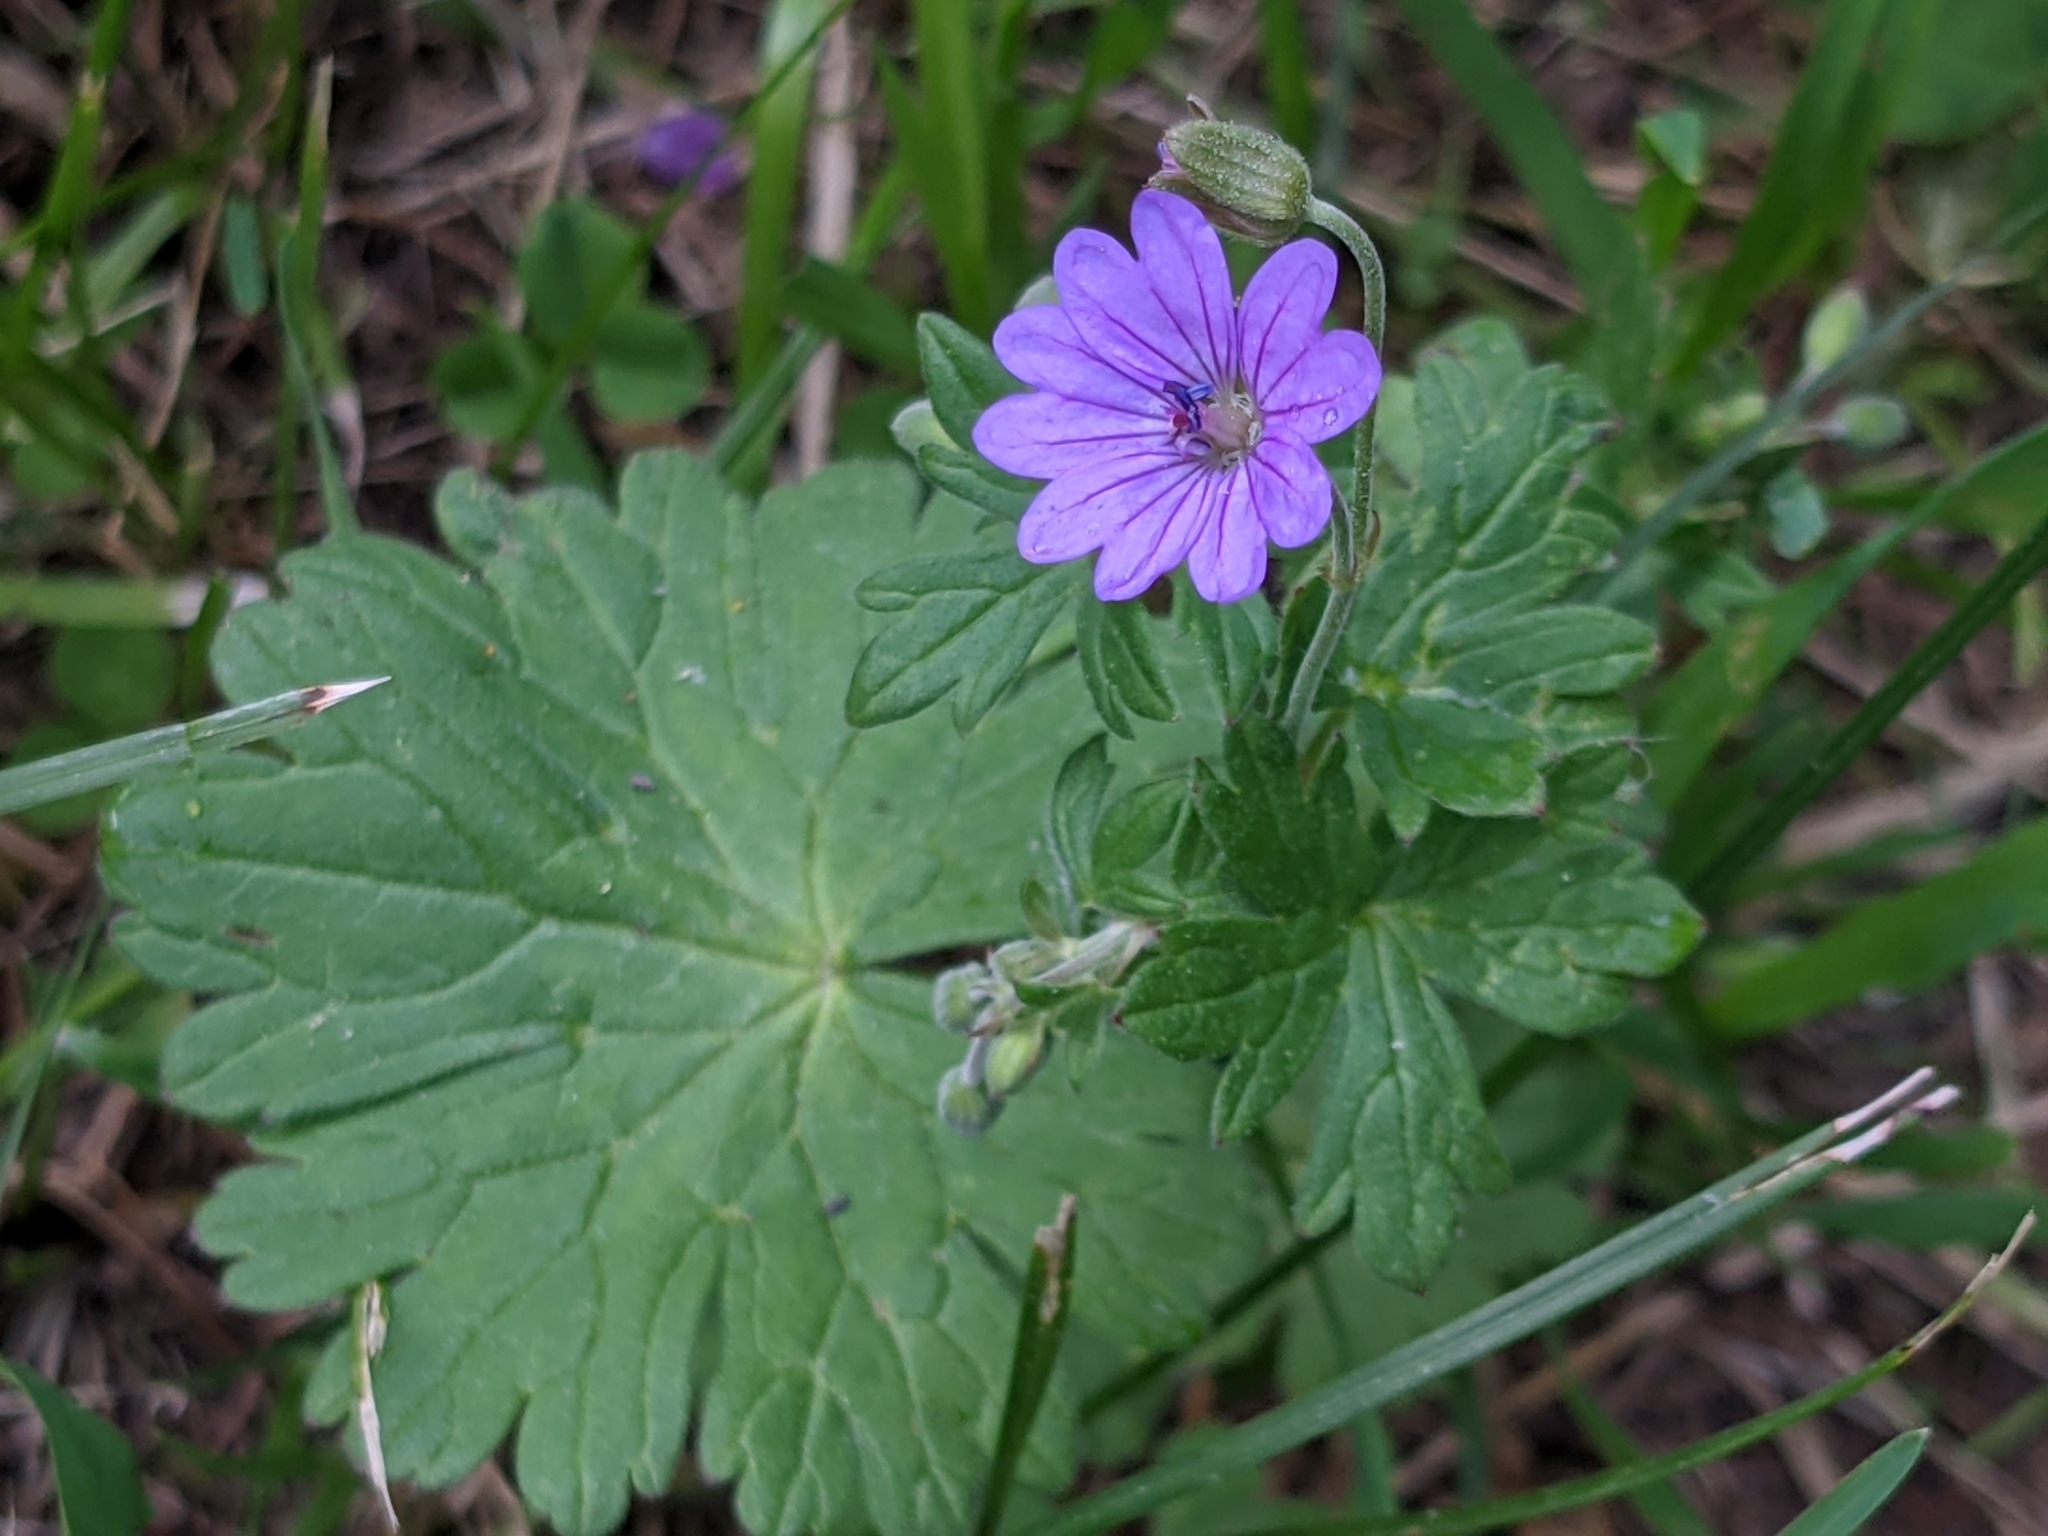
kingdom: Plantae
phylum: Tracheophyta
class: Magnoliopsida
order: Geraniales
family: Geraniaceae
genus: Geranium
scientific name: Geranium pyrenaicum
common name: Hedgerow crane's-bill
